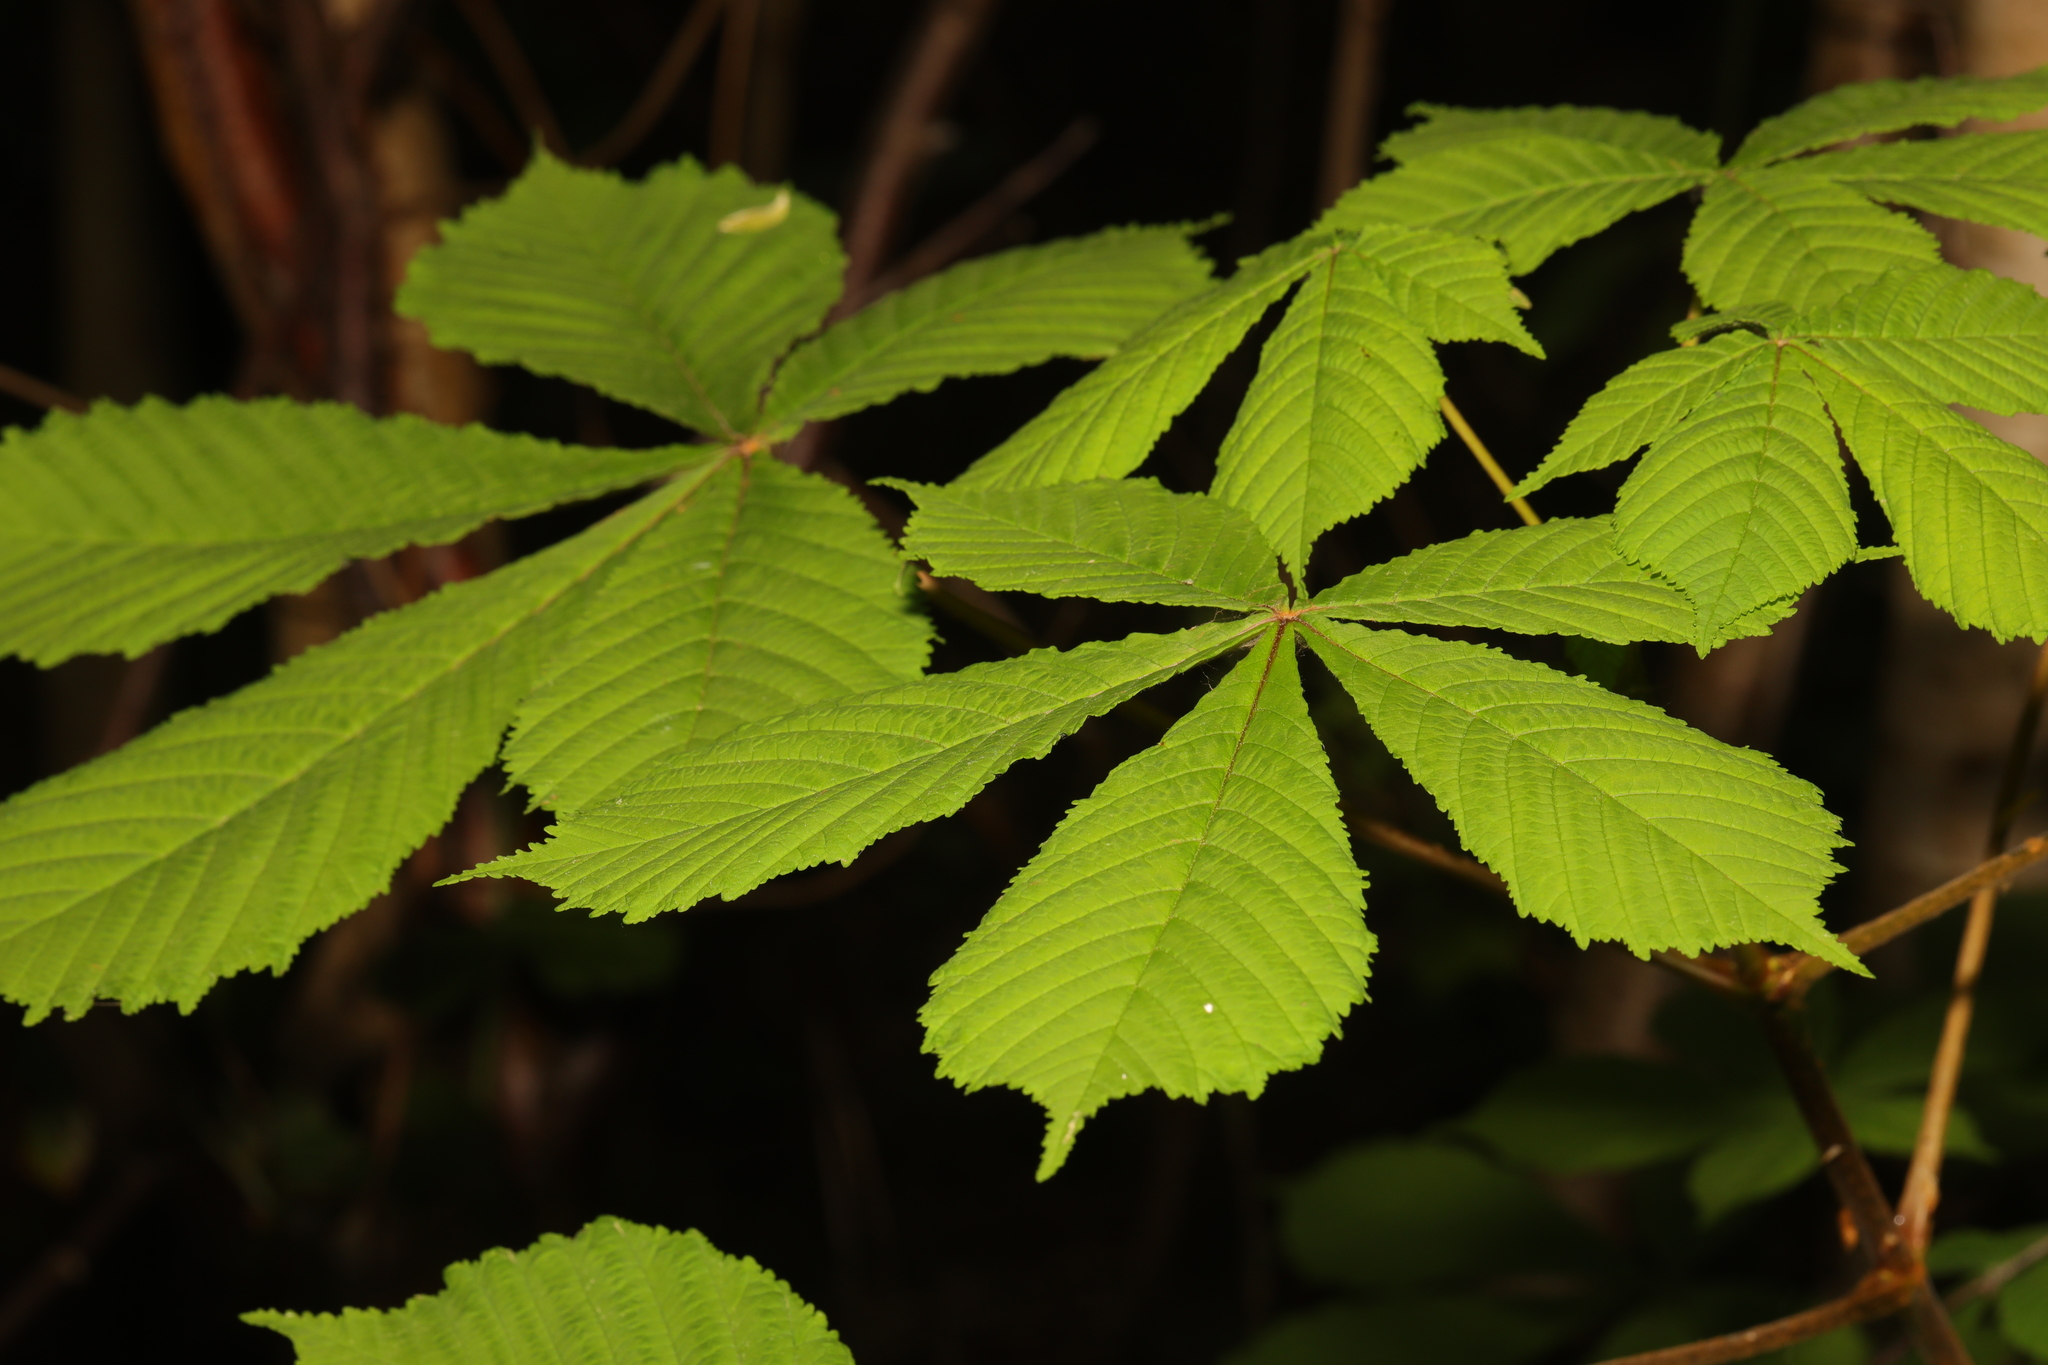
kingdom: Plantae
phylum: Tracheophyta
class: Magnoliopsida
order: Sapindales
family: Sapindaceae
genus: Aesculus
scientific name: Aesculus hippocastanum
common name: Horse-chestnut
